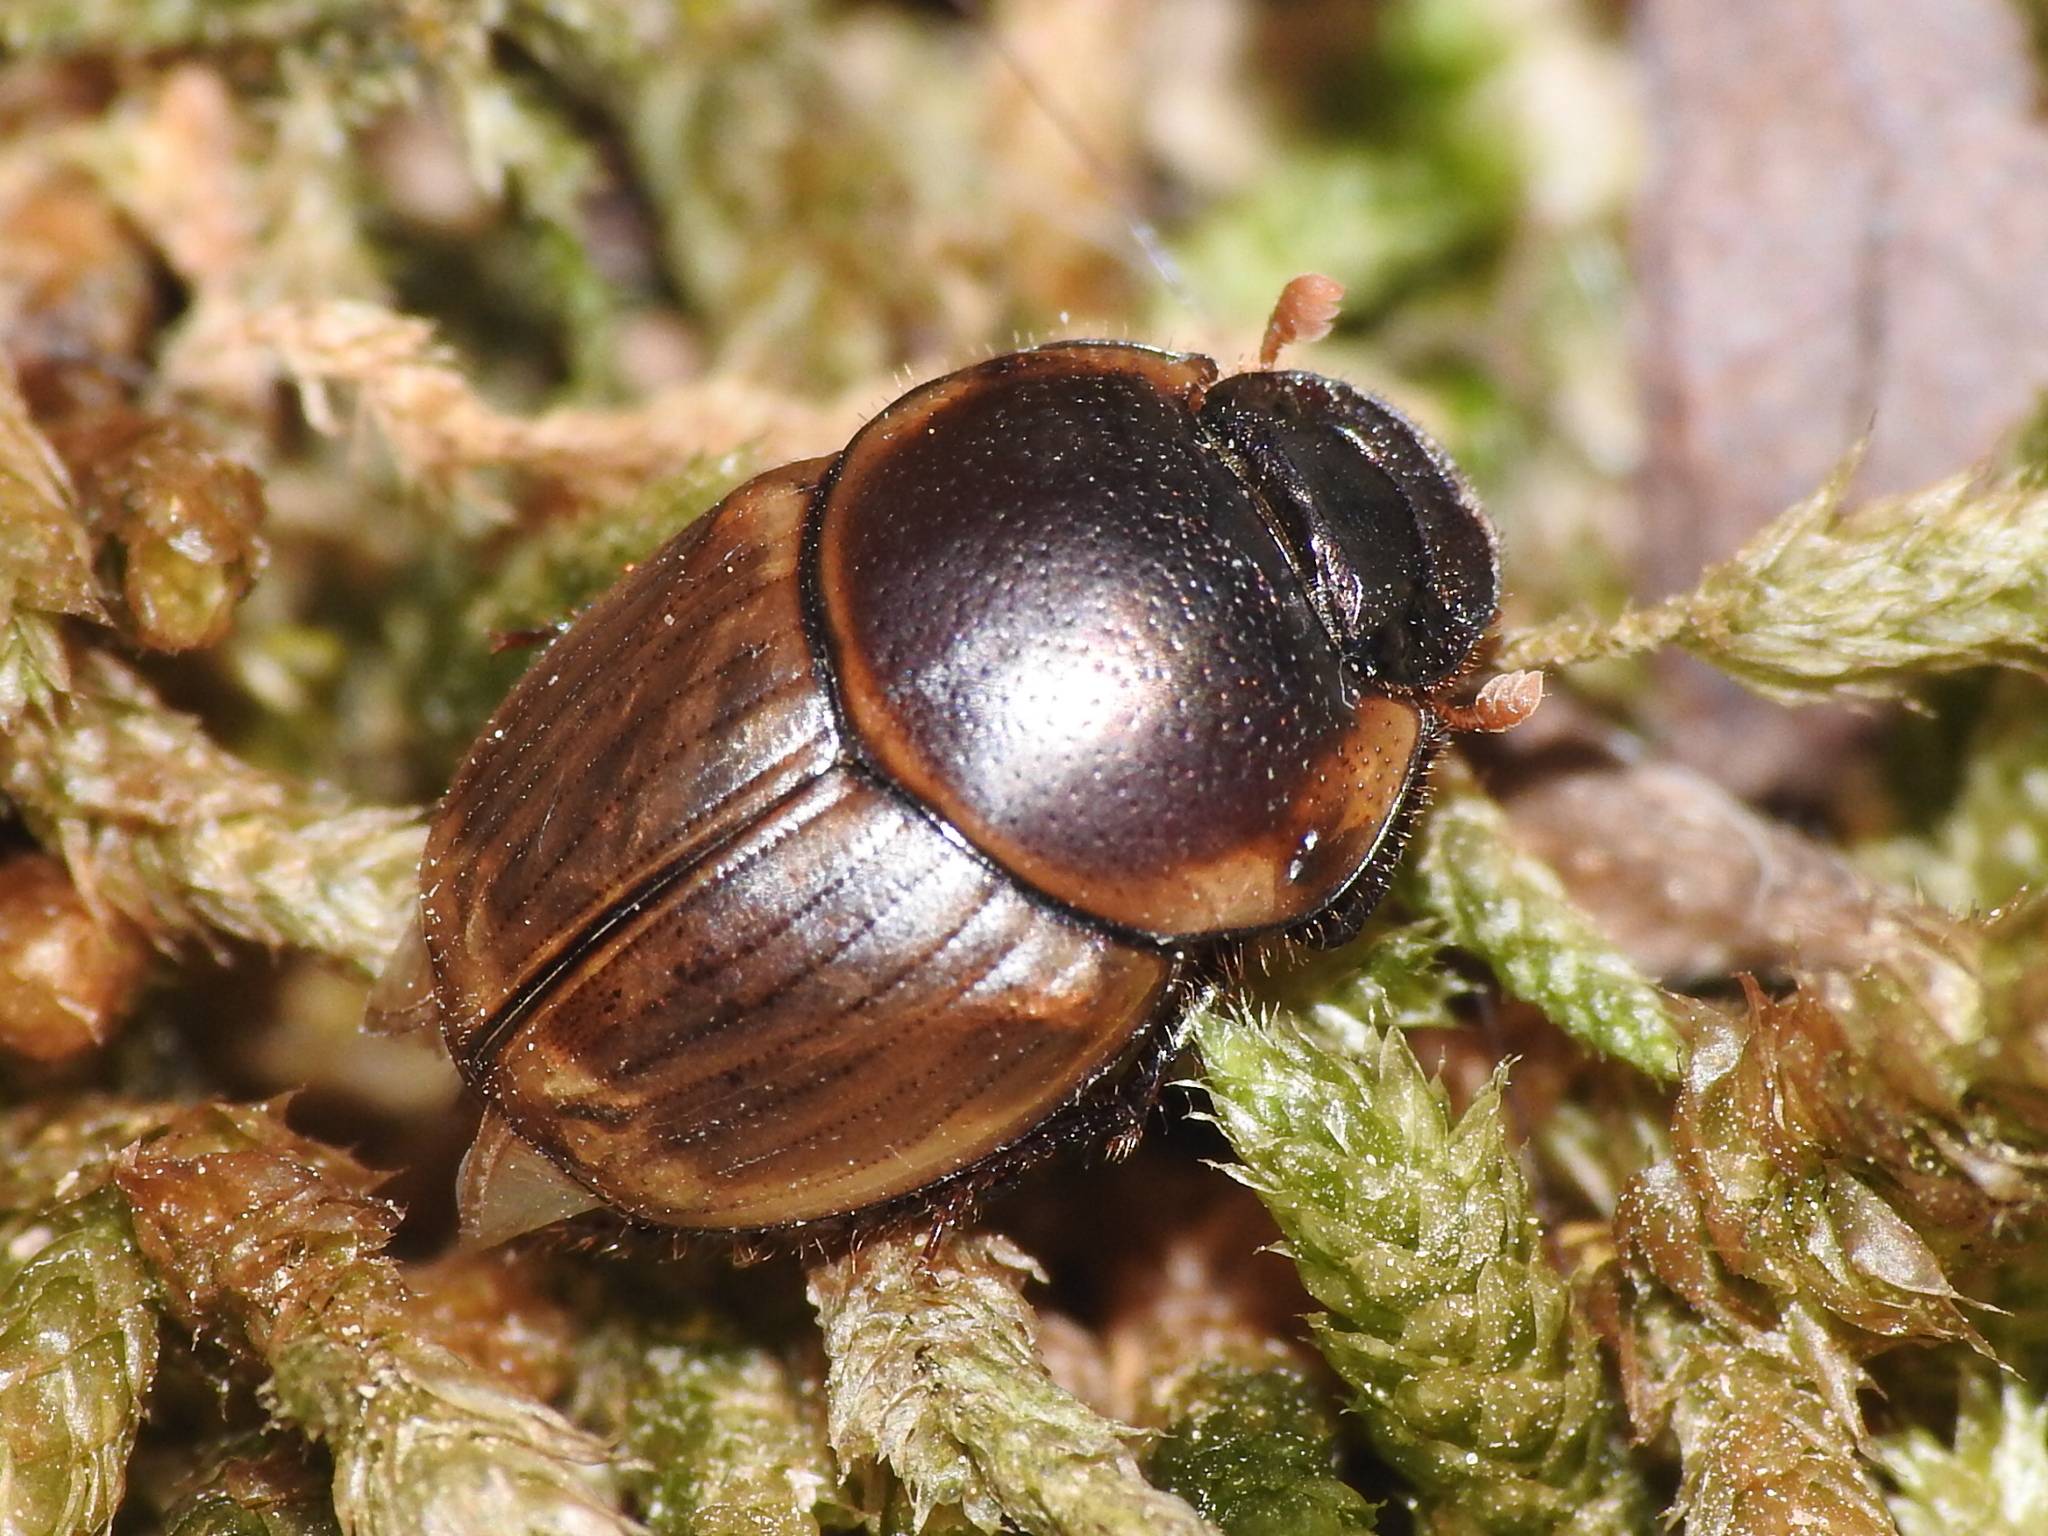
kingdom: Animalia
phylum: Arthropoda
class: Insecta
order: Coleoptera
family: Scarabaeidae
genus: Digitonthophagus
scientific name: Digitonthophagus gazella
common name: Brown dung beetle
